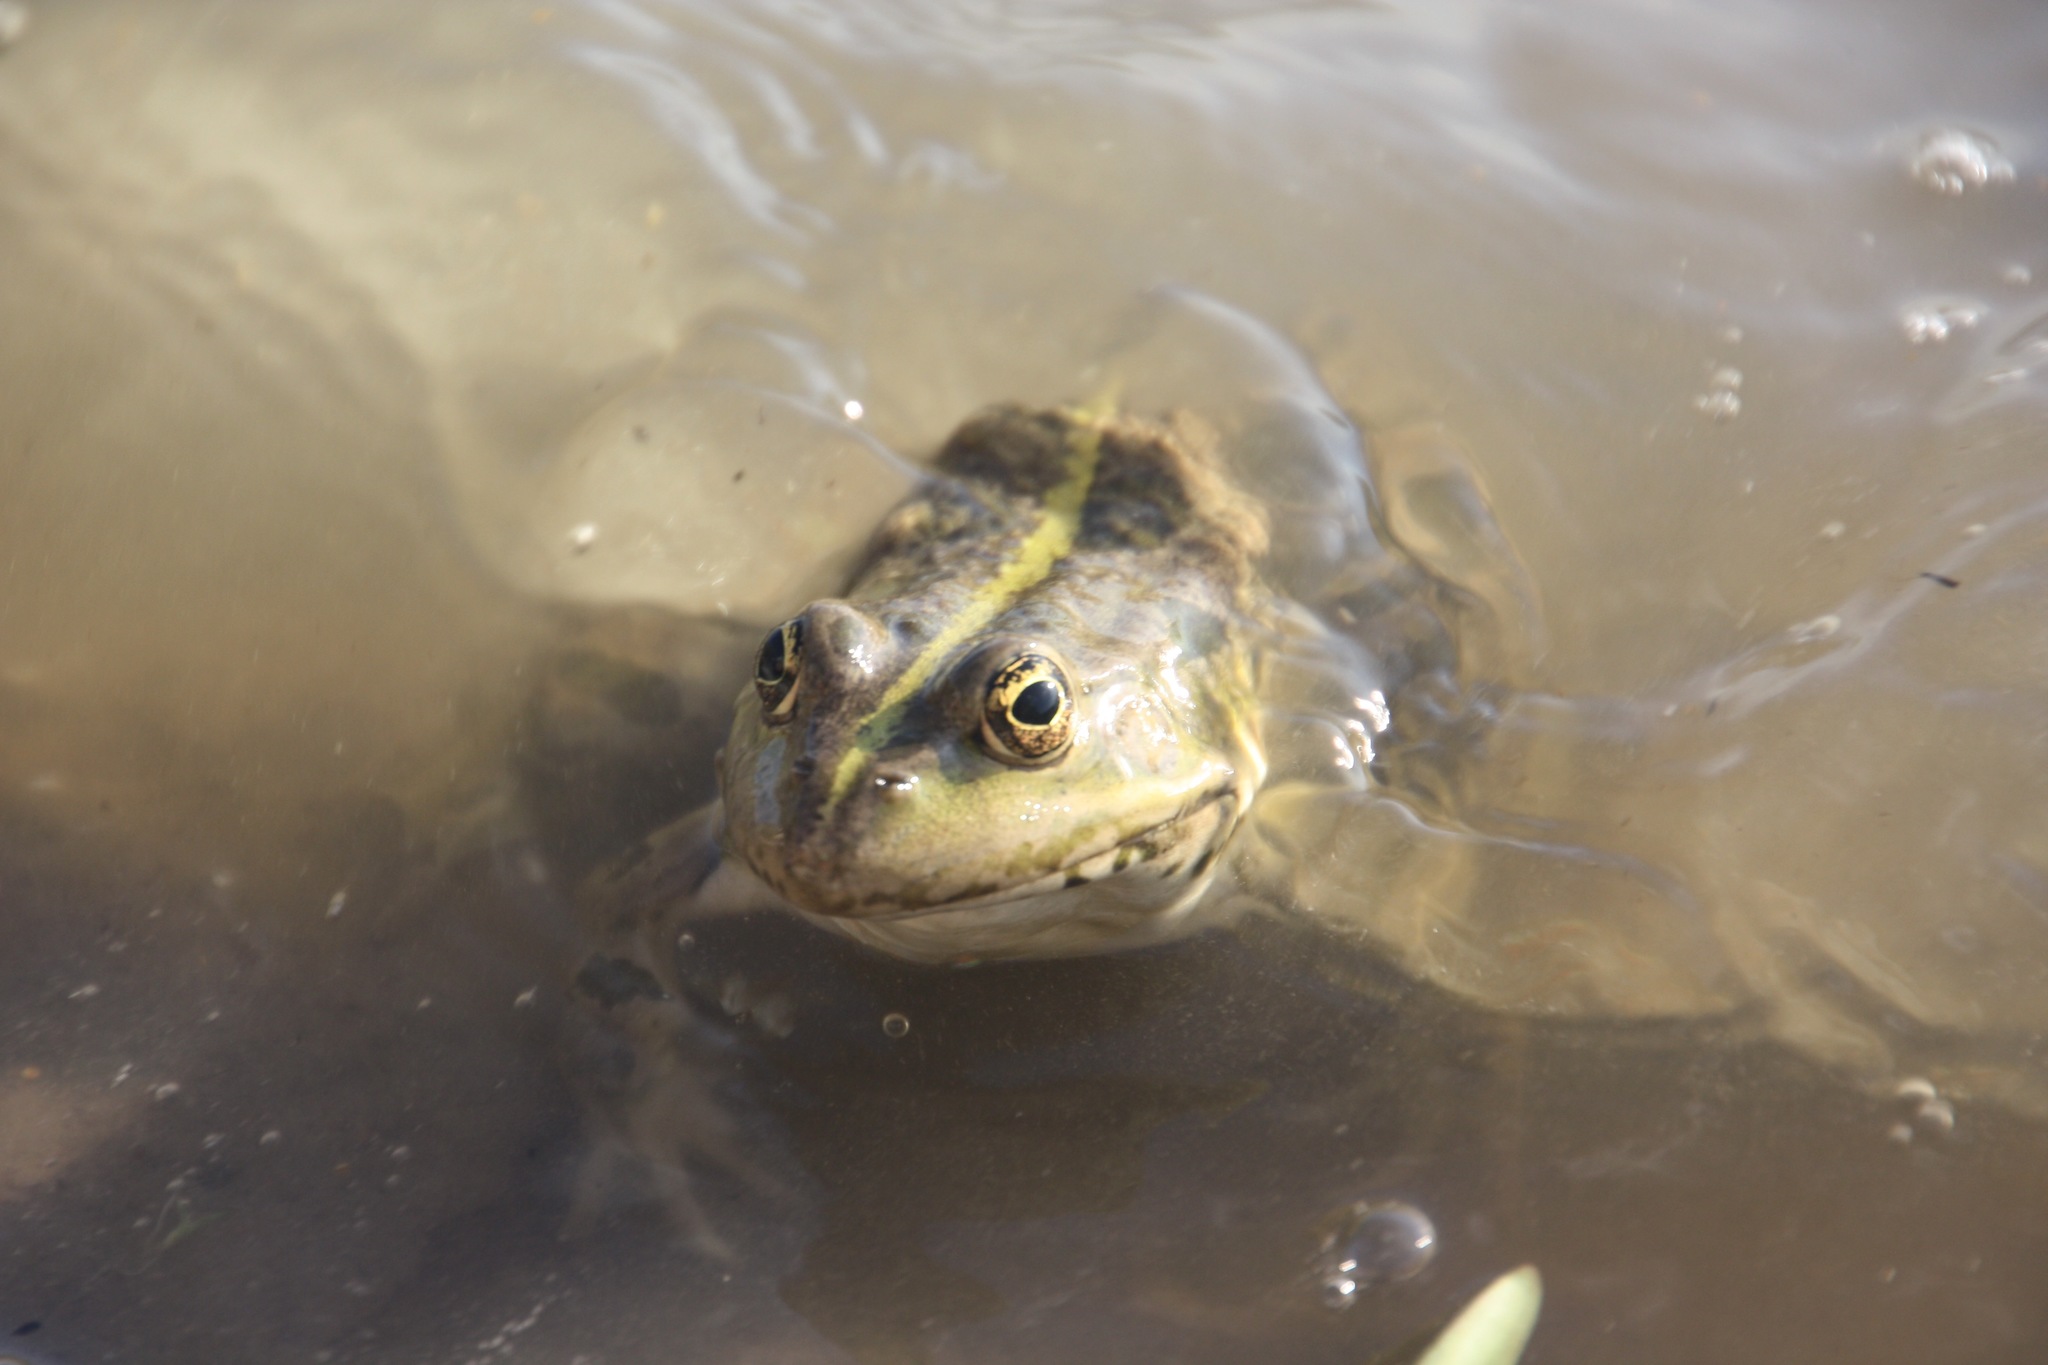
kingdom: Animalia
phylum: Chordata
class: Amphibia
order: Anura
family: Ranidae
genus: Pelophylax
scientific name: Pelophylax ridibundus
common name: Marsh frog
